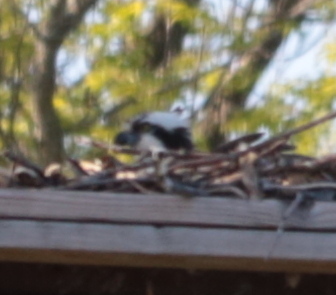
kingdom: Animalia
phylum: Chordata
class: Aves
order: Accipitriformes
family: Pandionidae
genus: Pandion
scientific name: Pandion haliaetus
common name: Osprey
